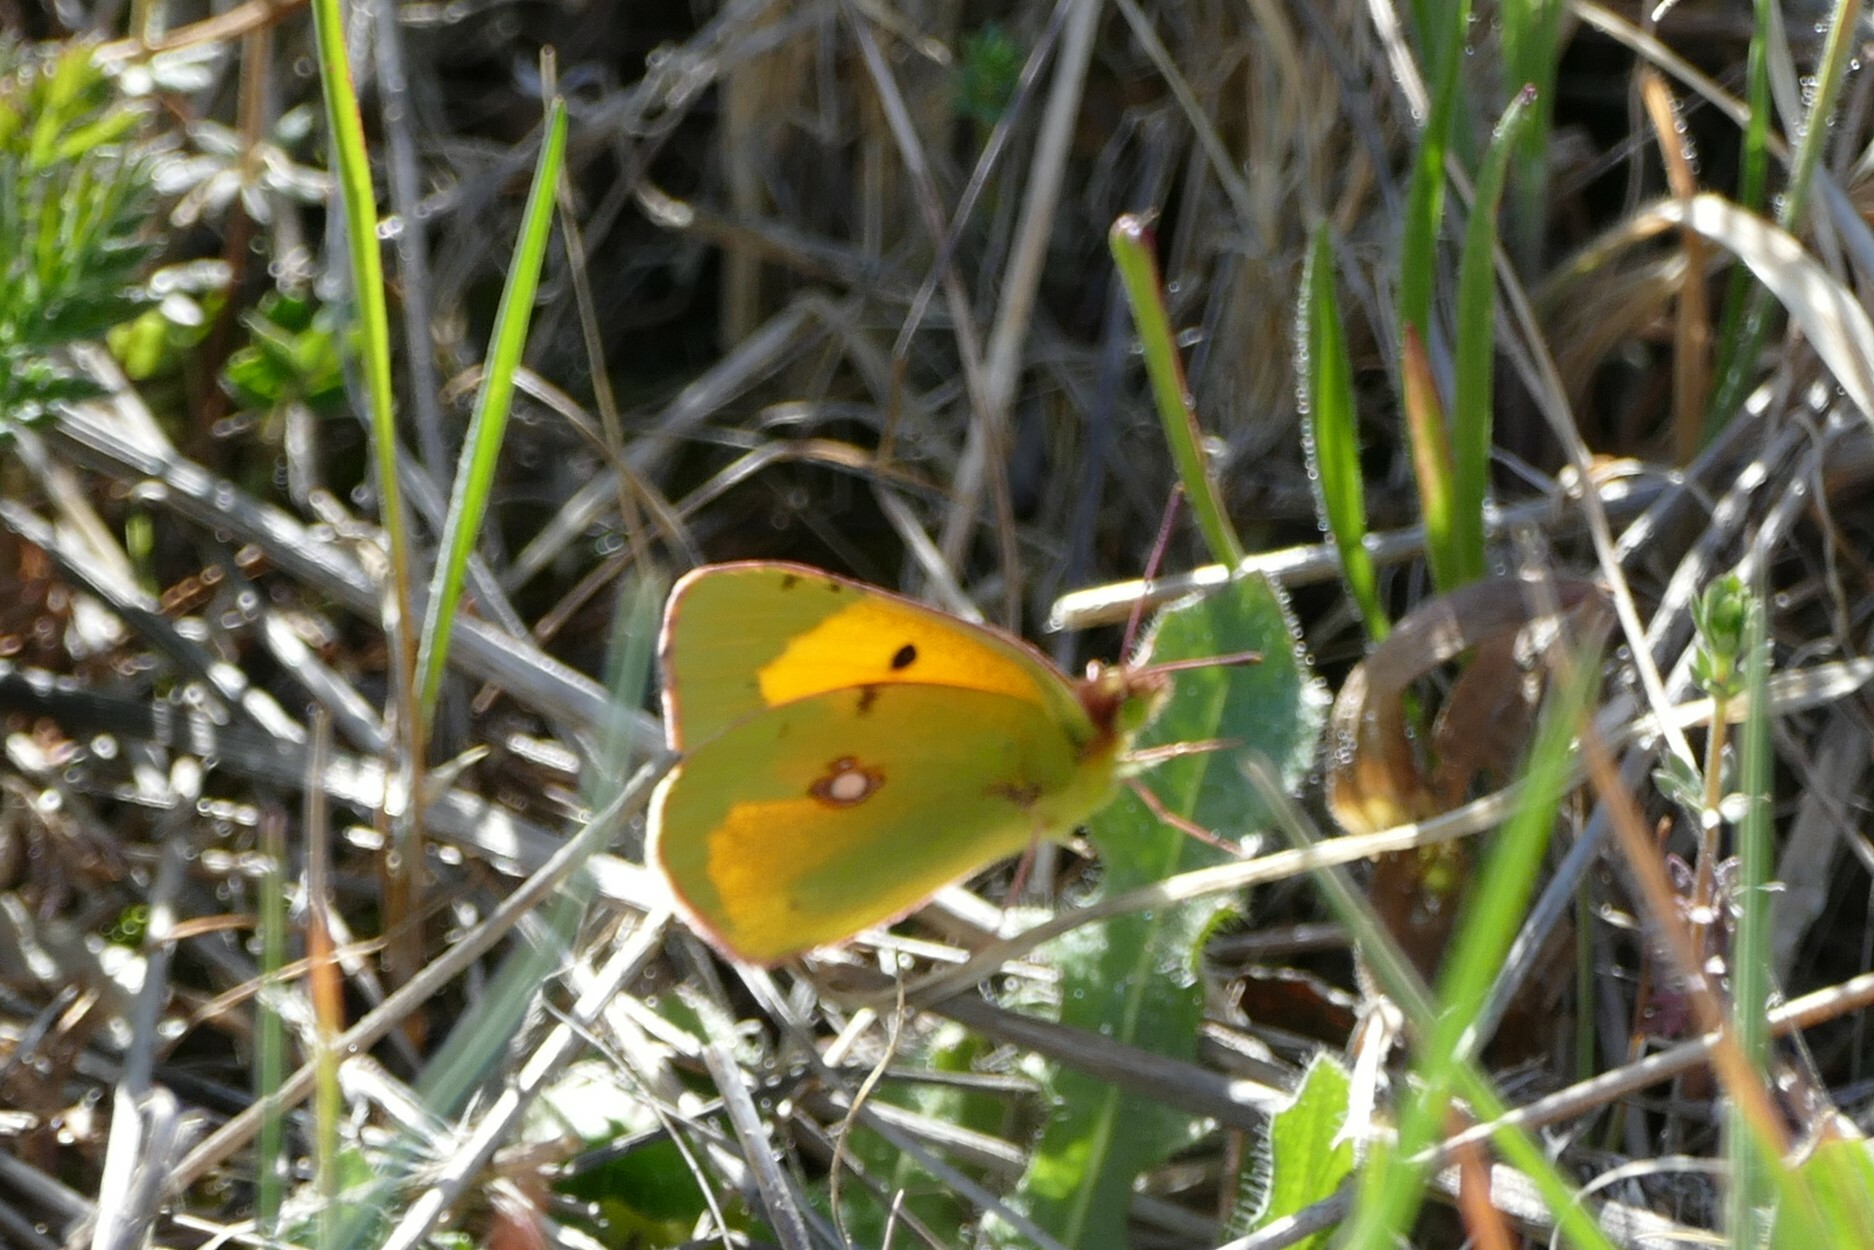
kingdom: Animalia
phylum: Arthropoda
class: Insecta
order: Lepidoptera
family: Pieridae
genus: Colias
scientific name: Colias croceus
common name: Clouded yellow
